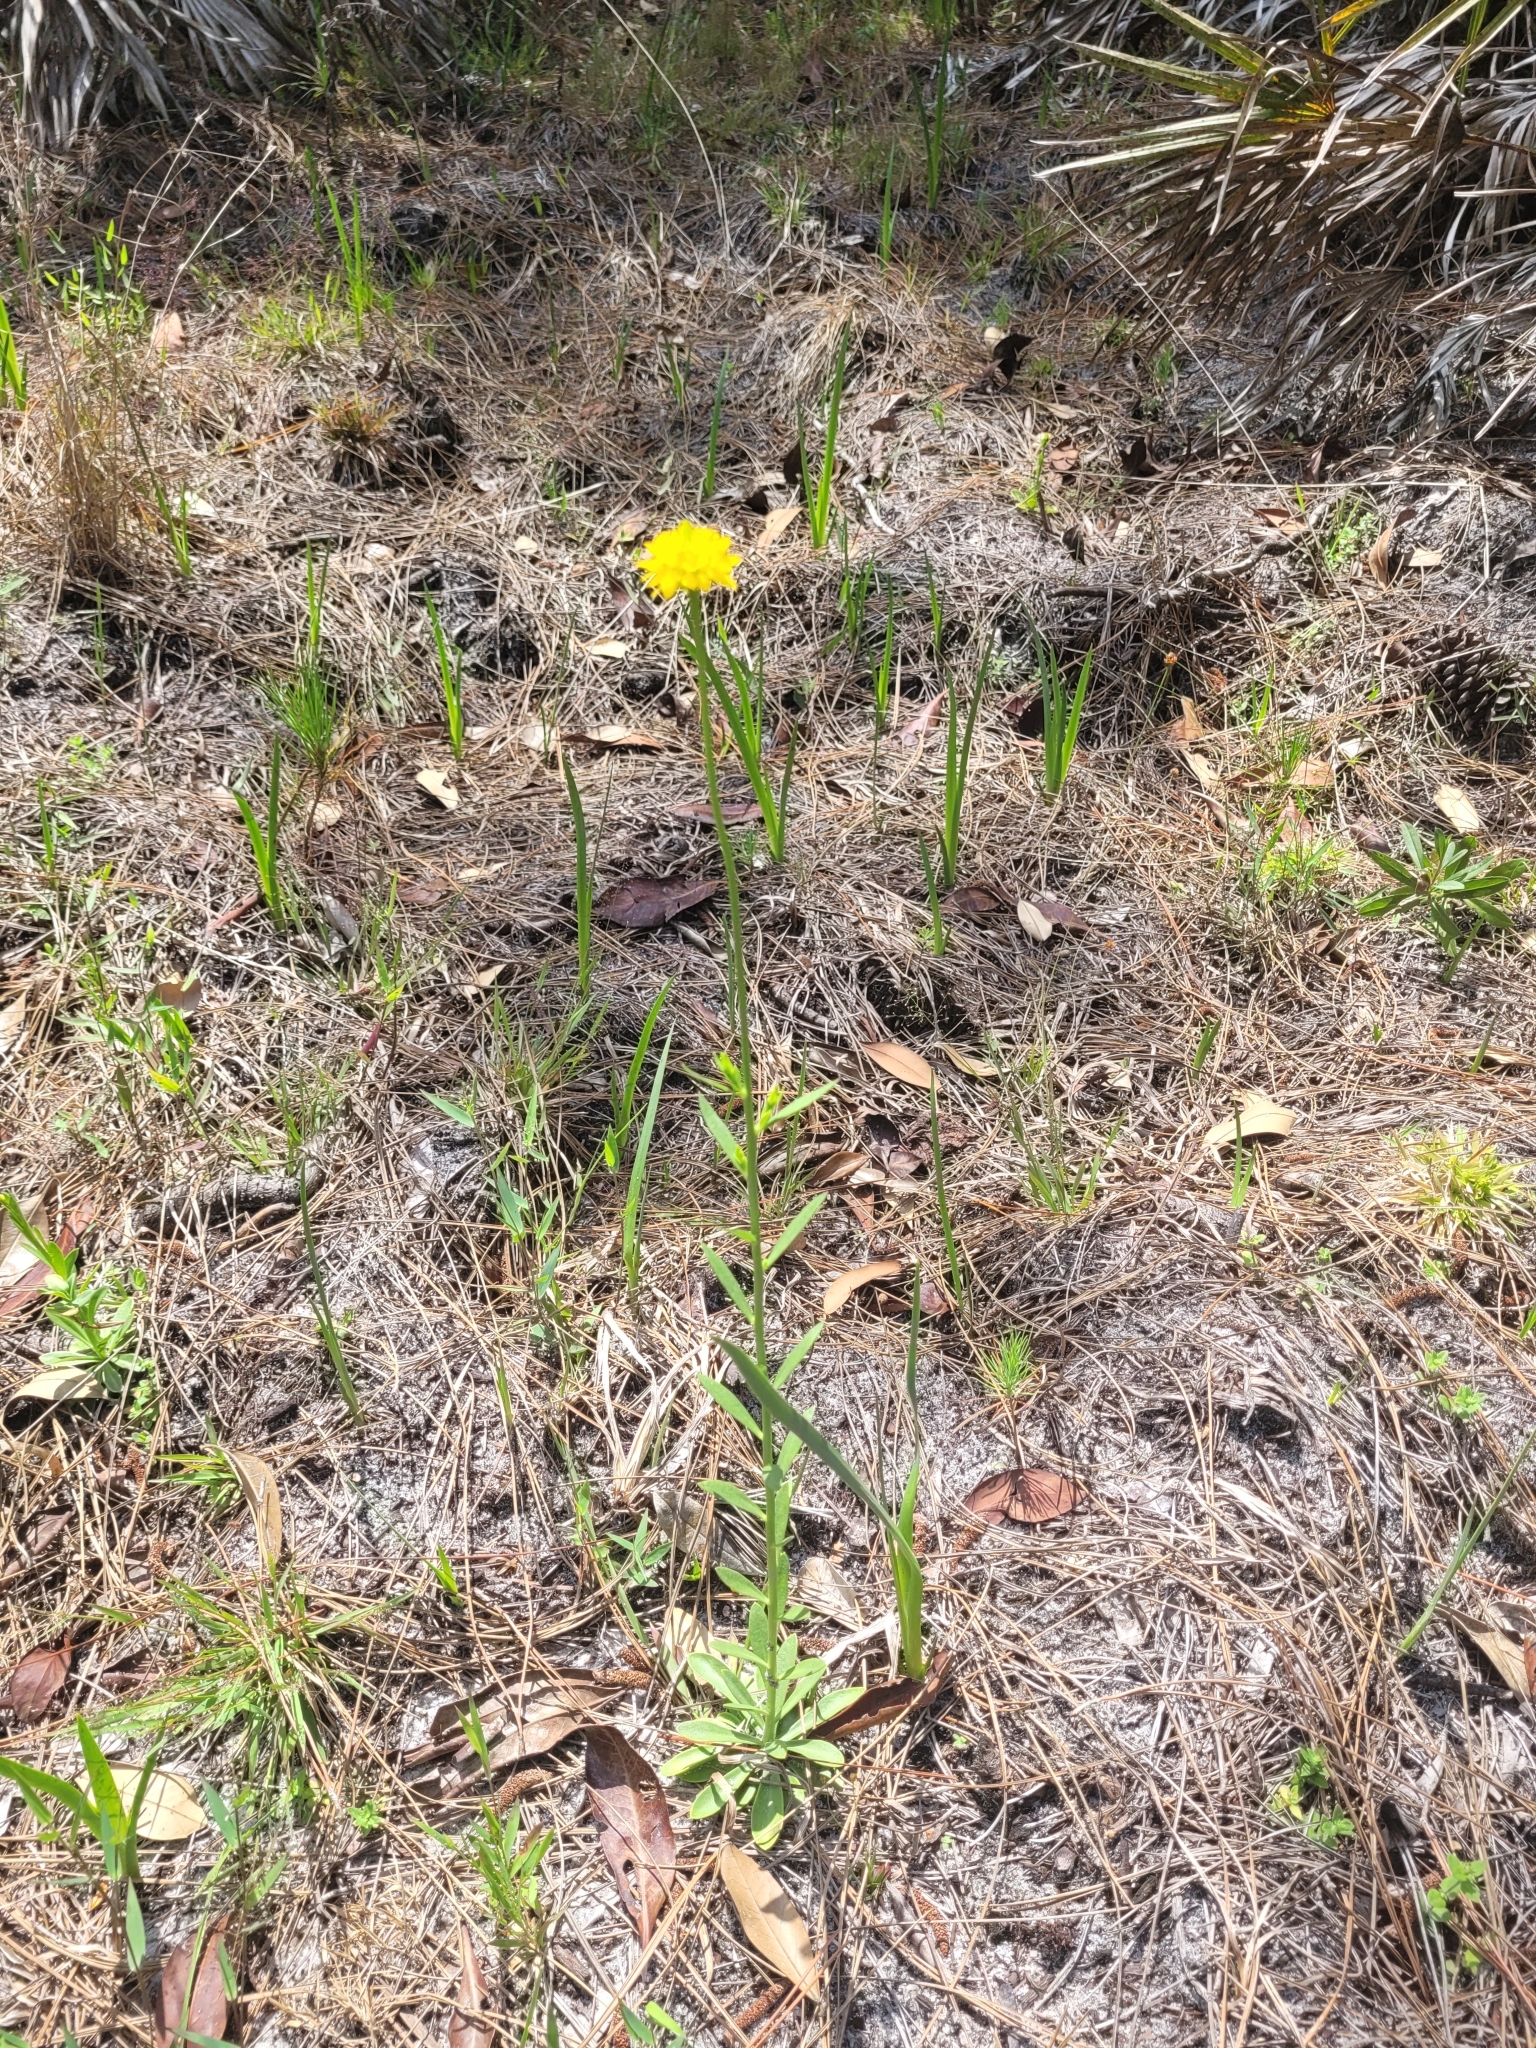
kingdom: Plantae
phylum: Tracheophyta
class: Magnoliopsida
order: Fabales
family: Polygalaceae
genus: Polygala
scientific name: Polygala rugelii
